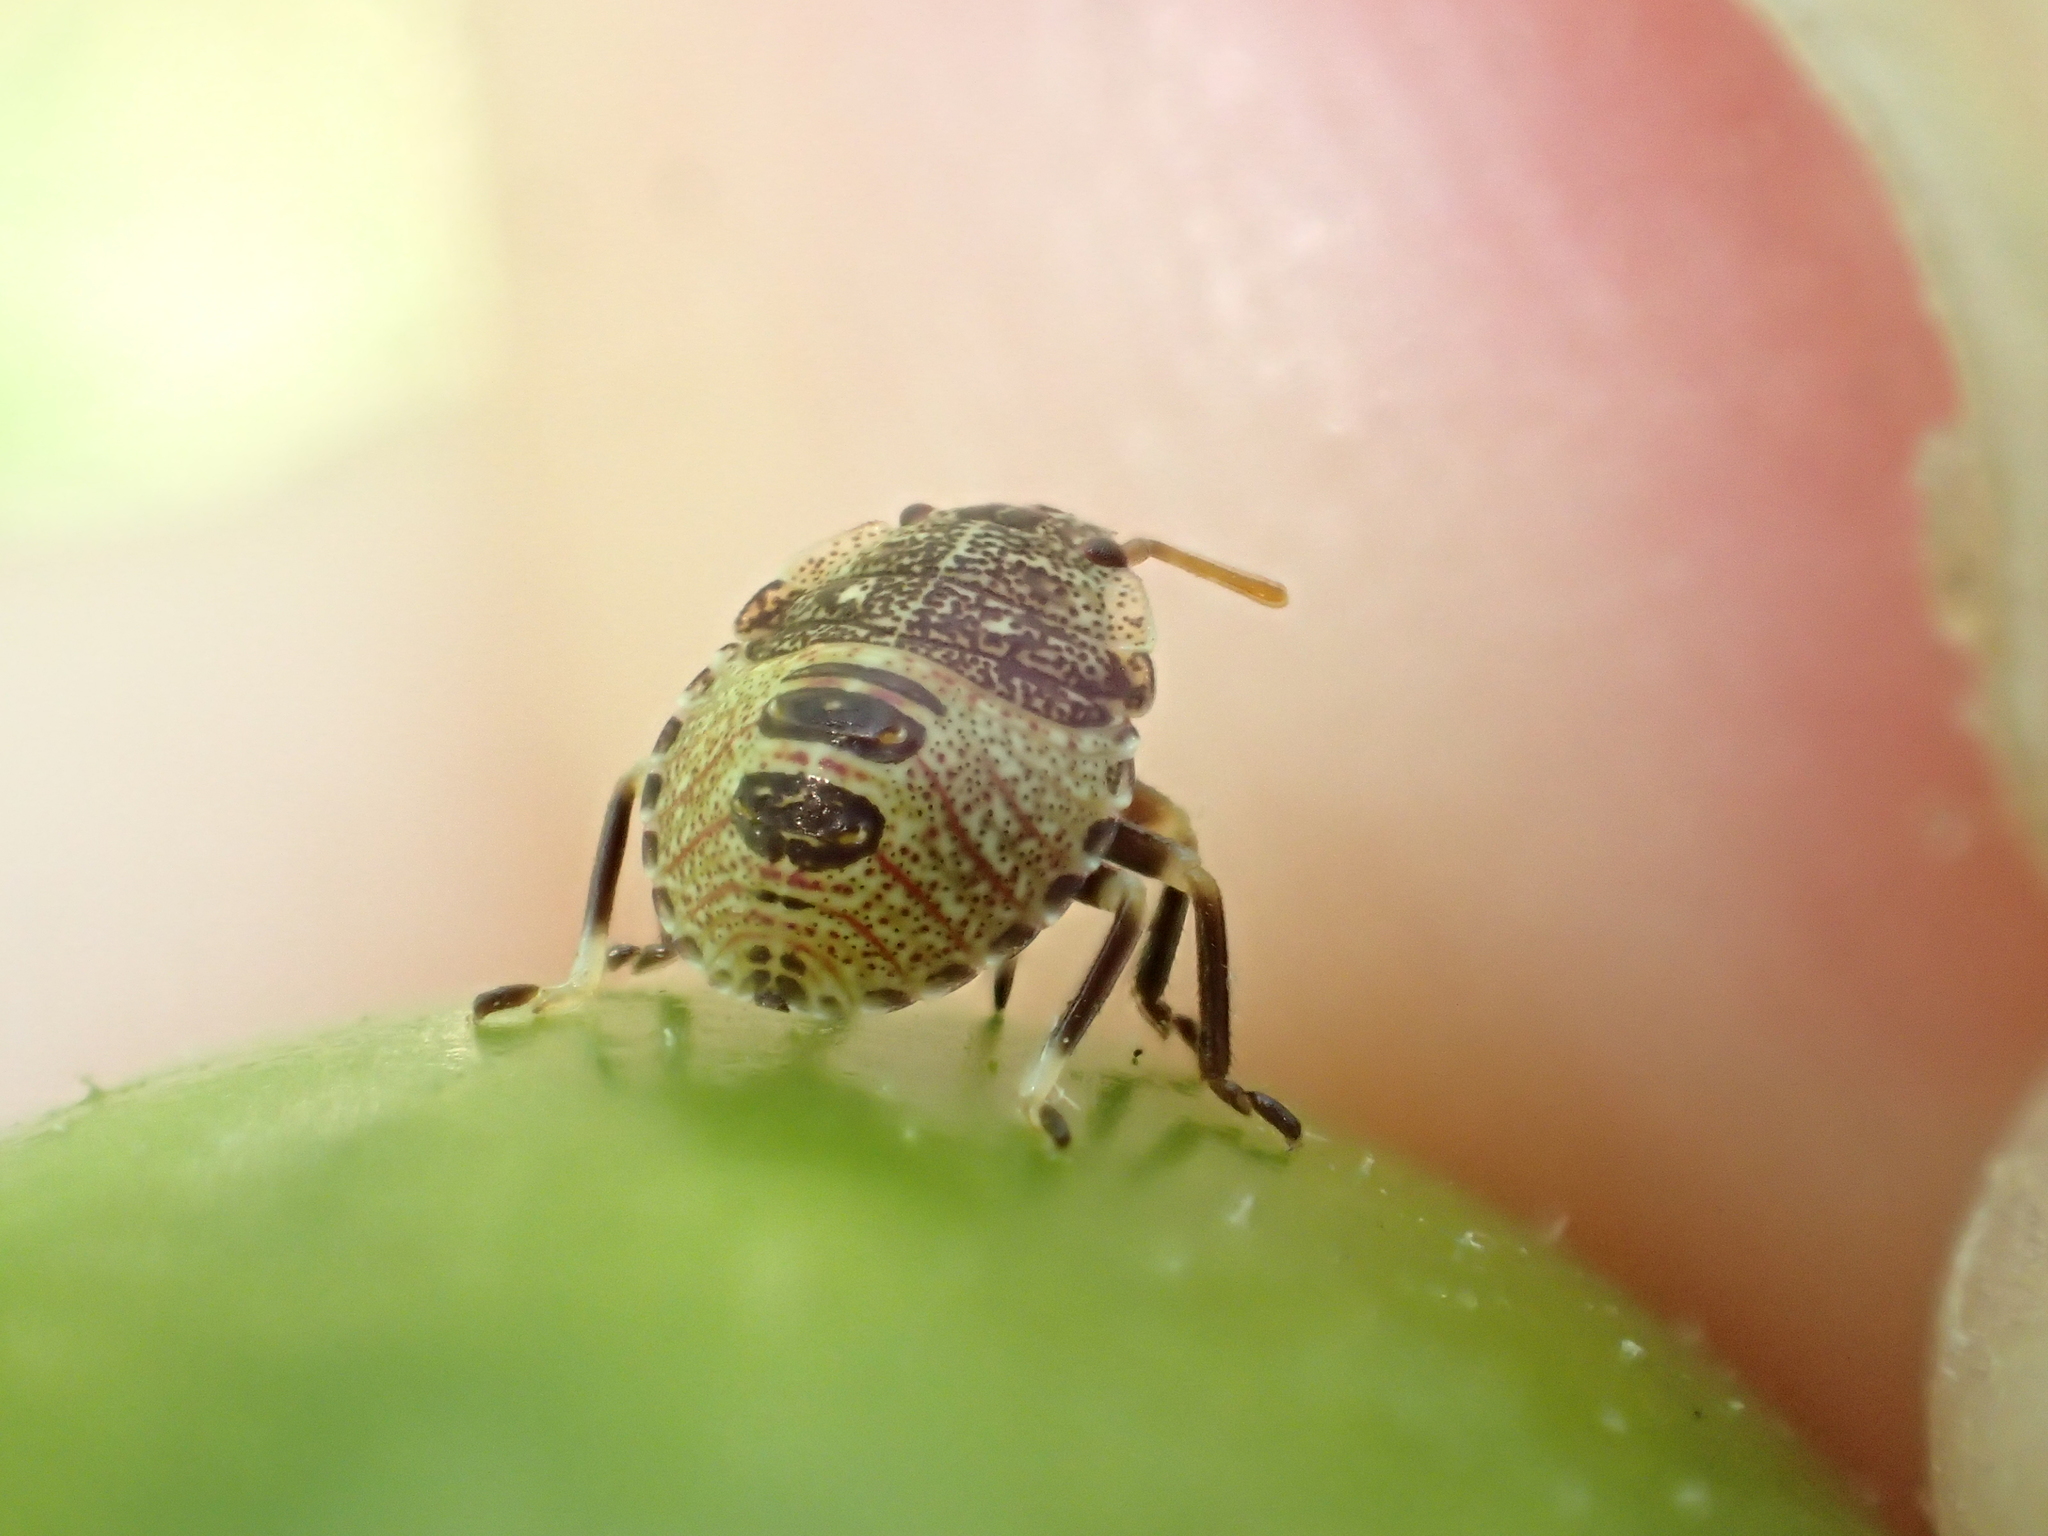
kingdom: Animalia
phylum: Arthropoda
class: Insecta
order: Hemiptera
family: Pentatomidae
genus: Cuspicona
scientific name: Cuspicona simplex
